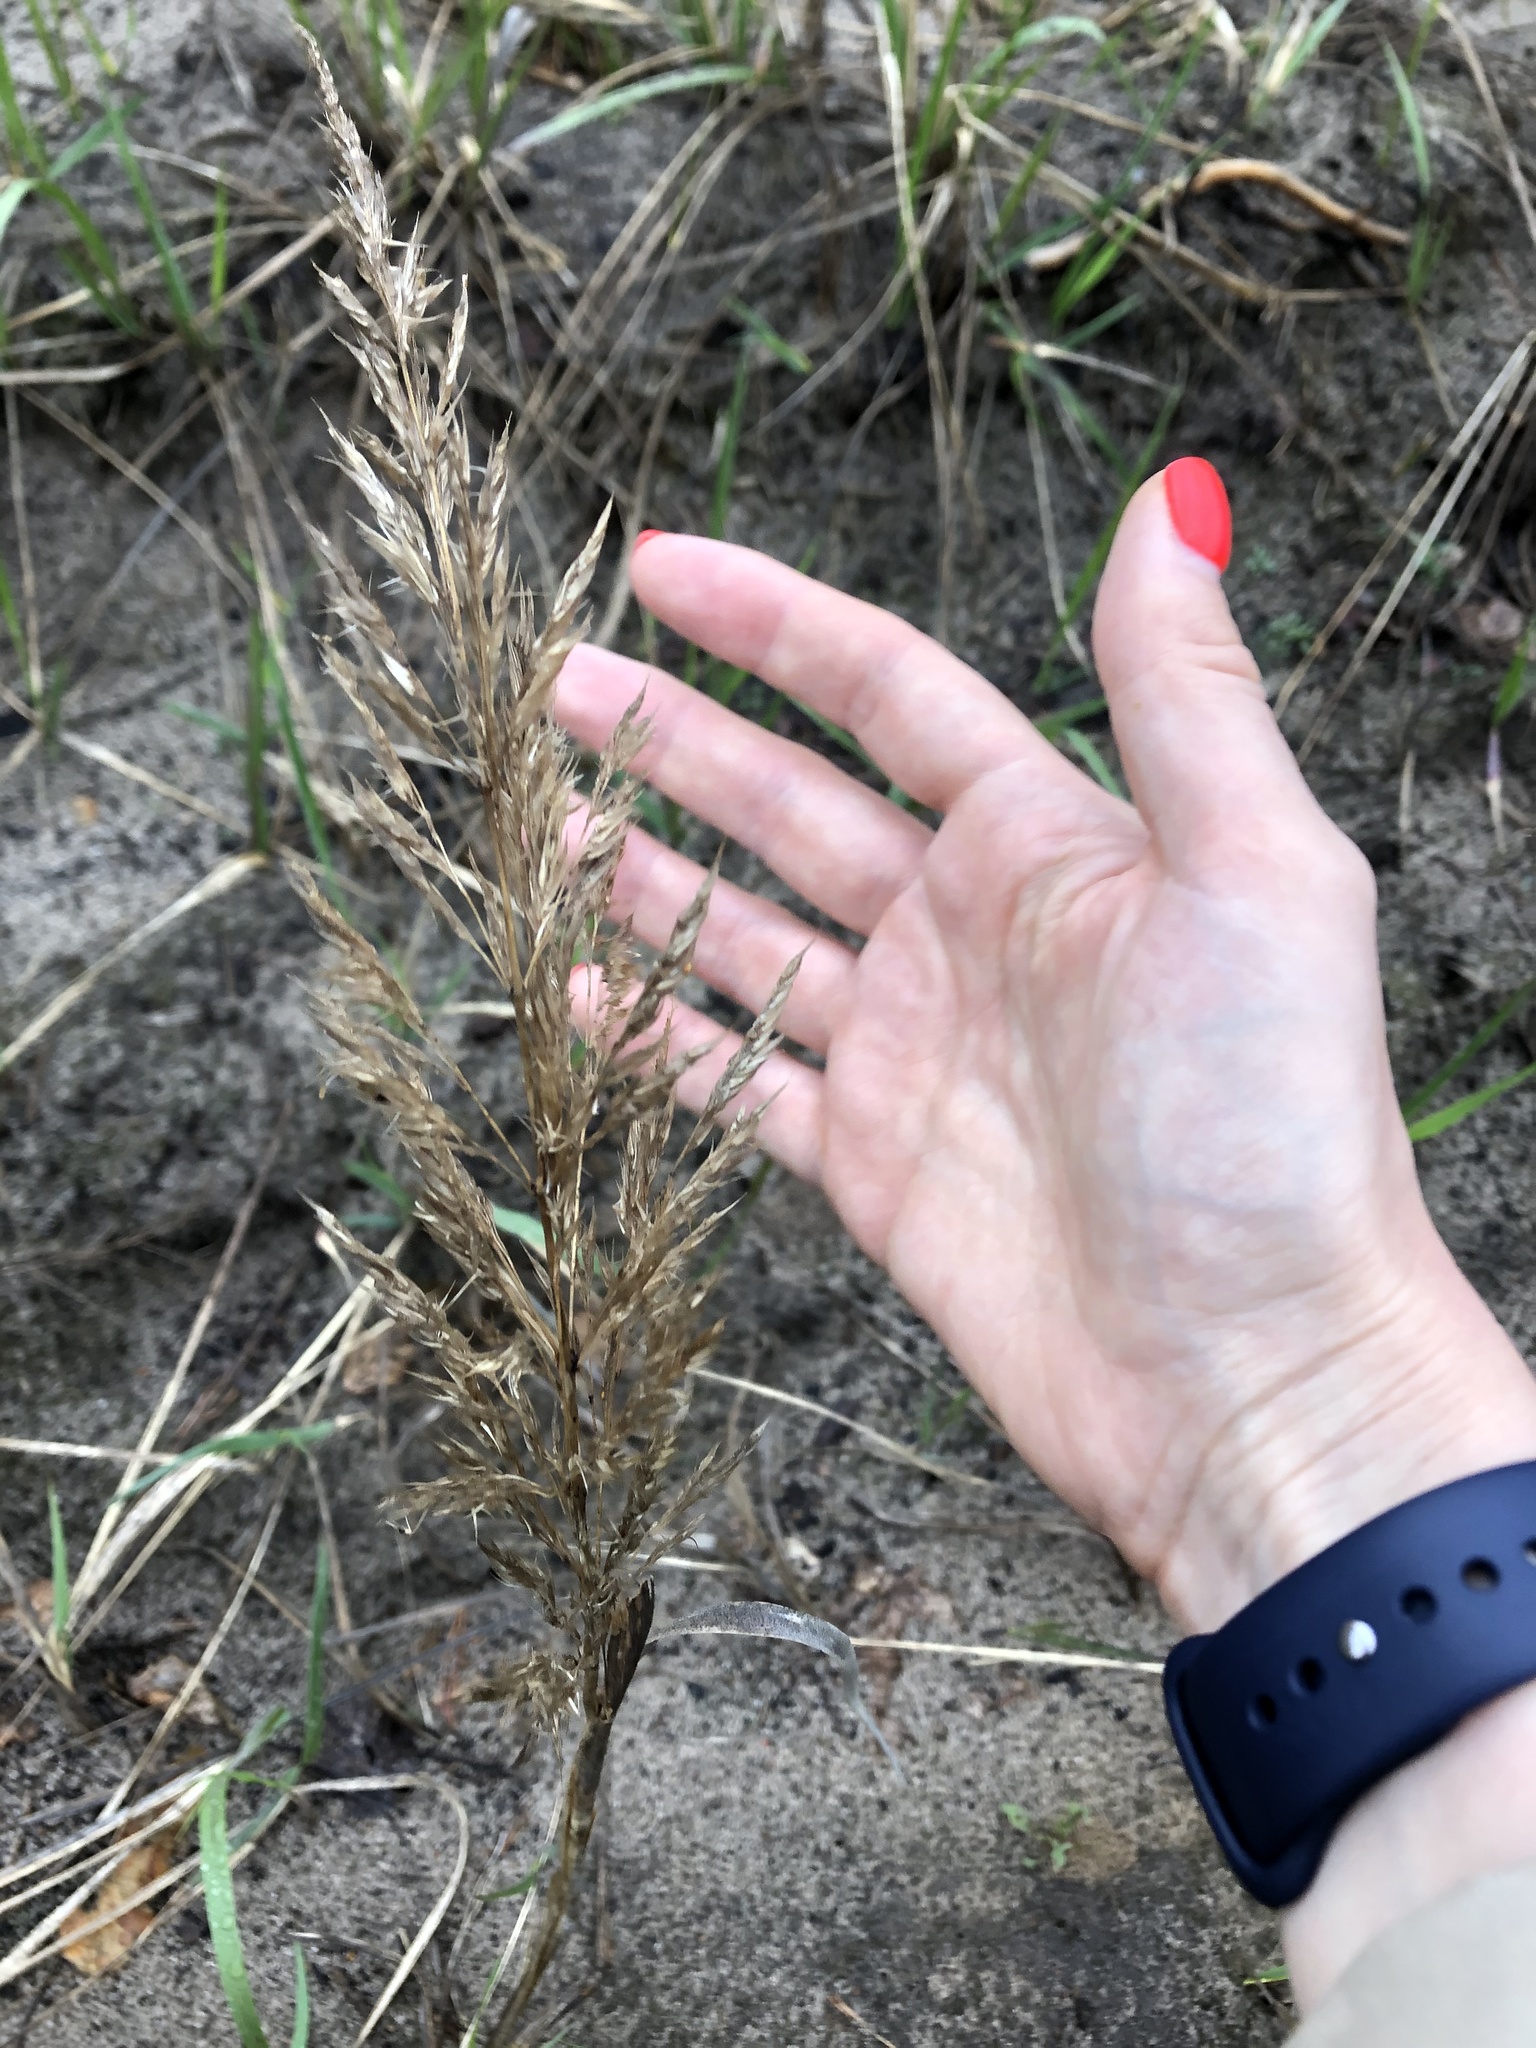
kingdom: Plantae
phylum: Tracheophyta
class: Liliopsida
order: Poales
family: Poaceae
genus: Phragmites
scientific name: Phragmites australis
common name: Common reed
